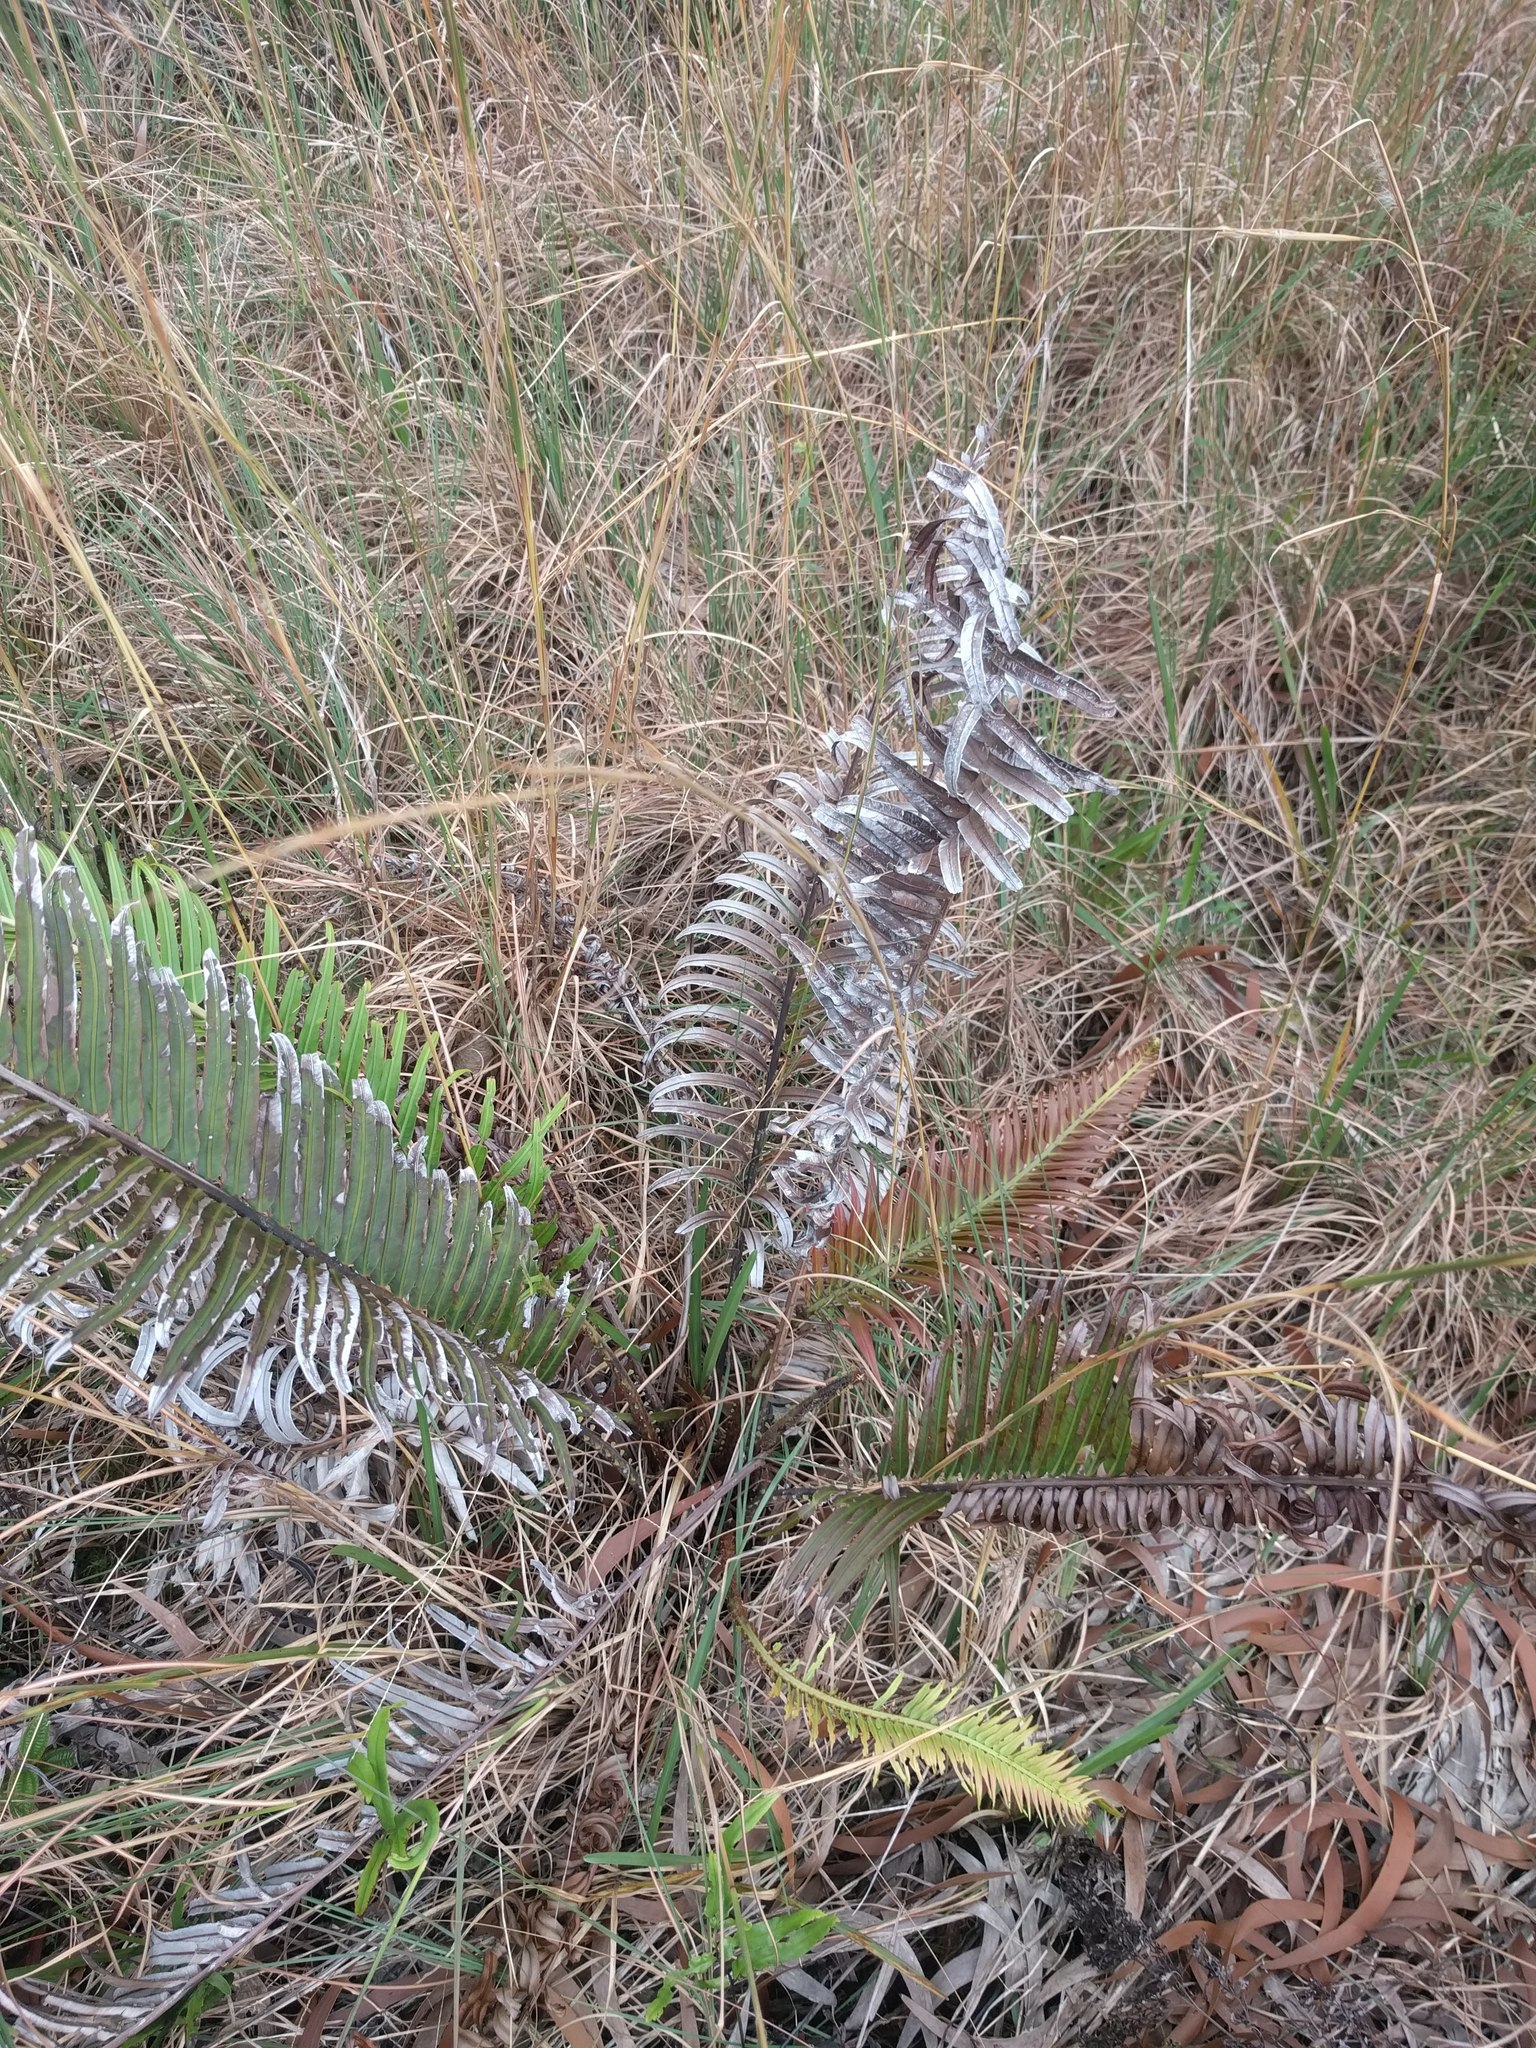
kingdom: Plantae
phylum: Tracheophyta
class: Polypodiopsida
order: Polypodiales
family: Blechnaceae
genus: Blechnopsis
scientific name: Blechnopsis orientalis
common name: Oriental blechnum
